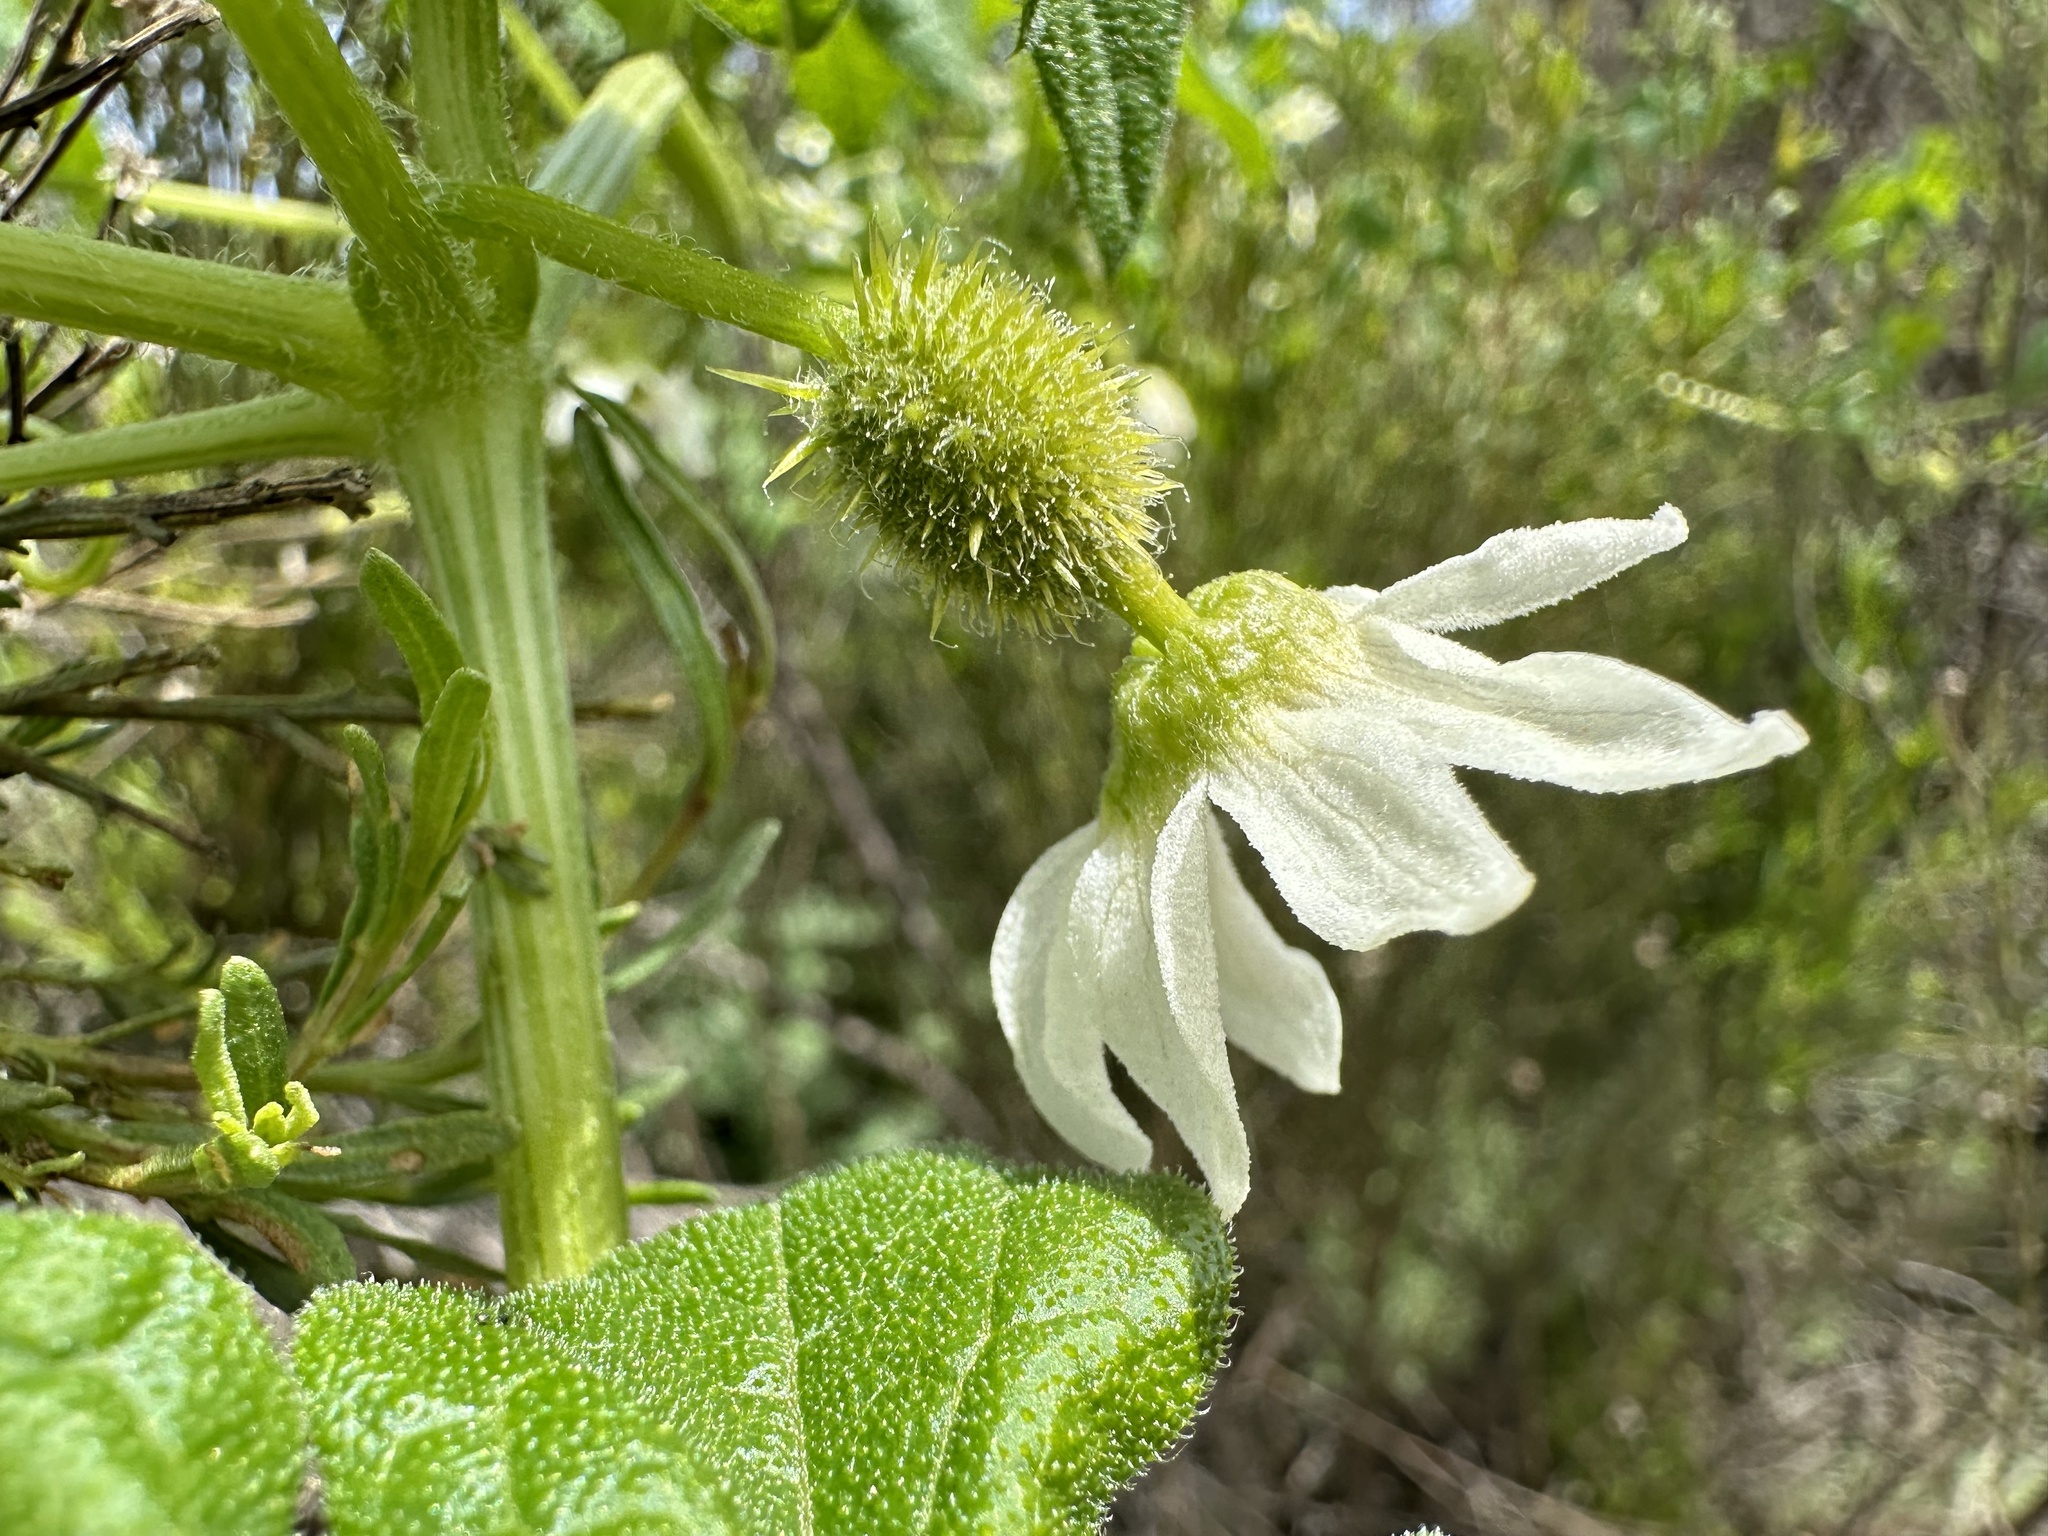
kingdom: Plantae
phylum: Tracheophyta
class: Magnoliopsida
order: Cucurbitales
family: Cucurbitaceae
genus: Marah
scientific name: Marah macrocarpa
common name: Cucamonga manroot
